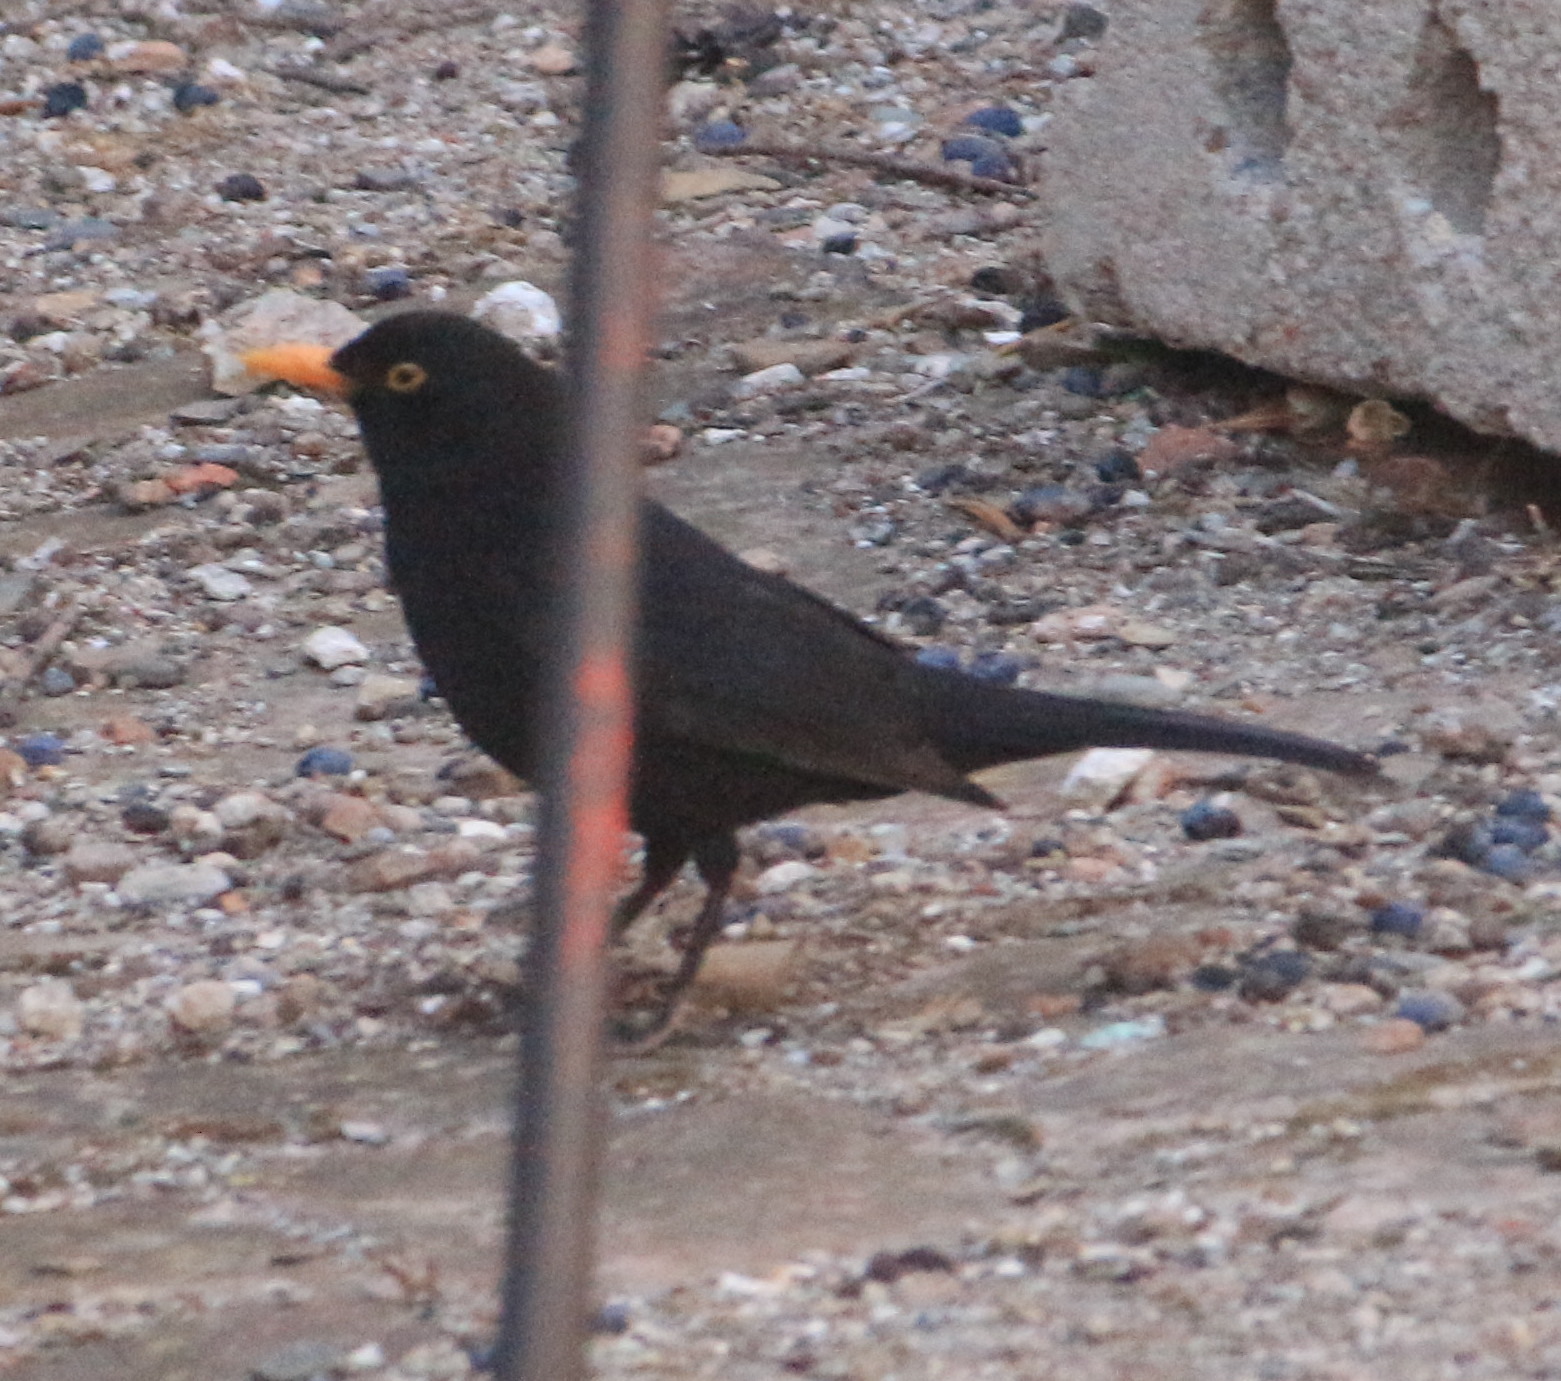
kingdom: Animalia
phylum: Chordata
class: Aves
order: Passeriformes
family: Turdidae
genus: Turdus
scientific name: Turdus merula
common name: Common blackbird
